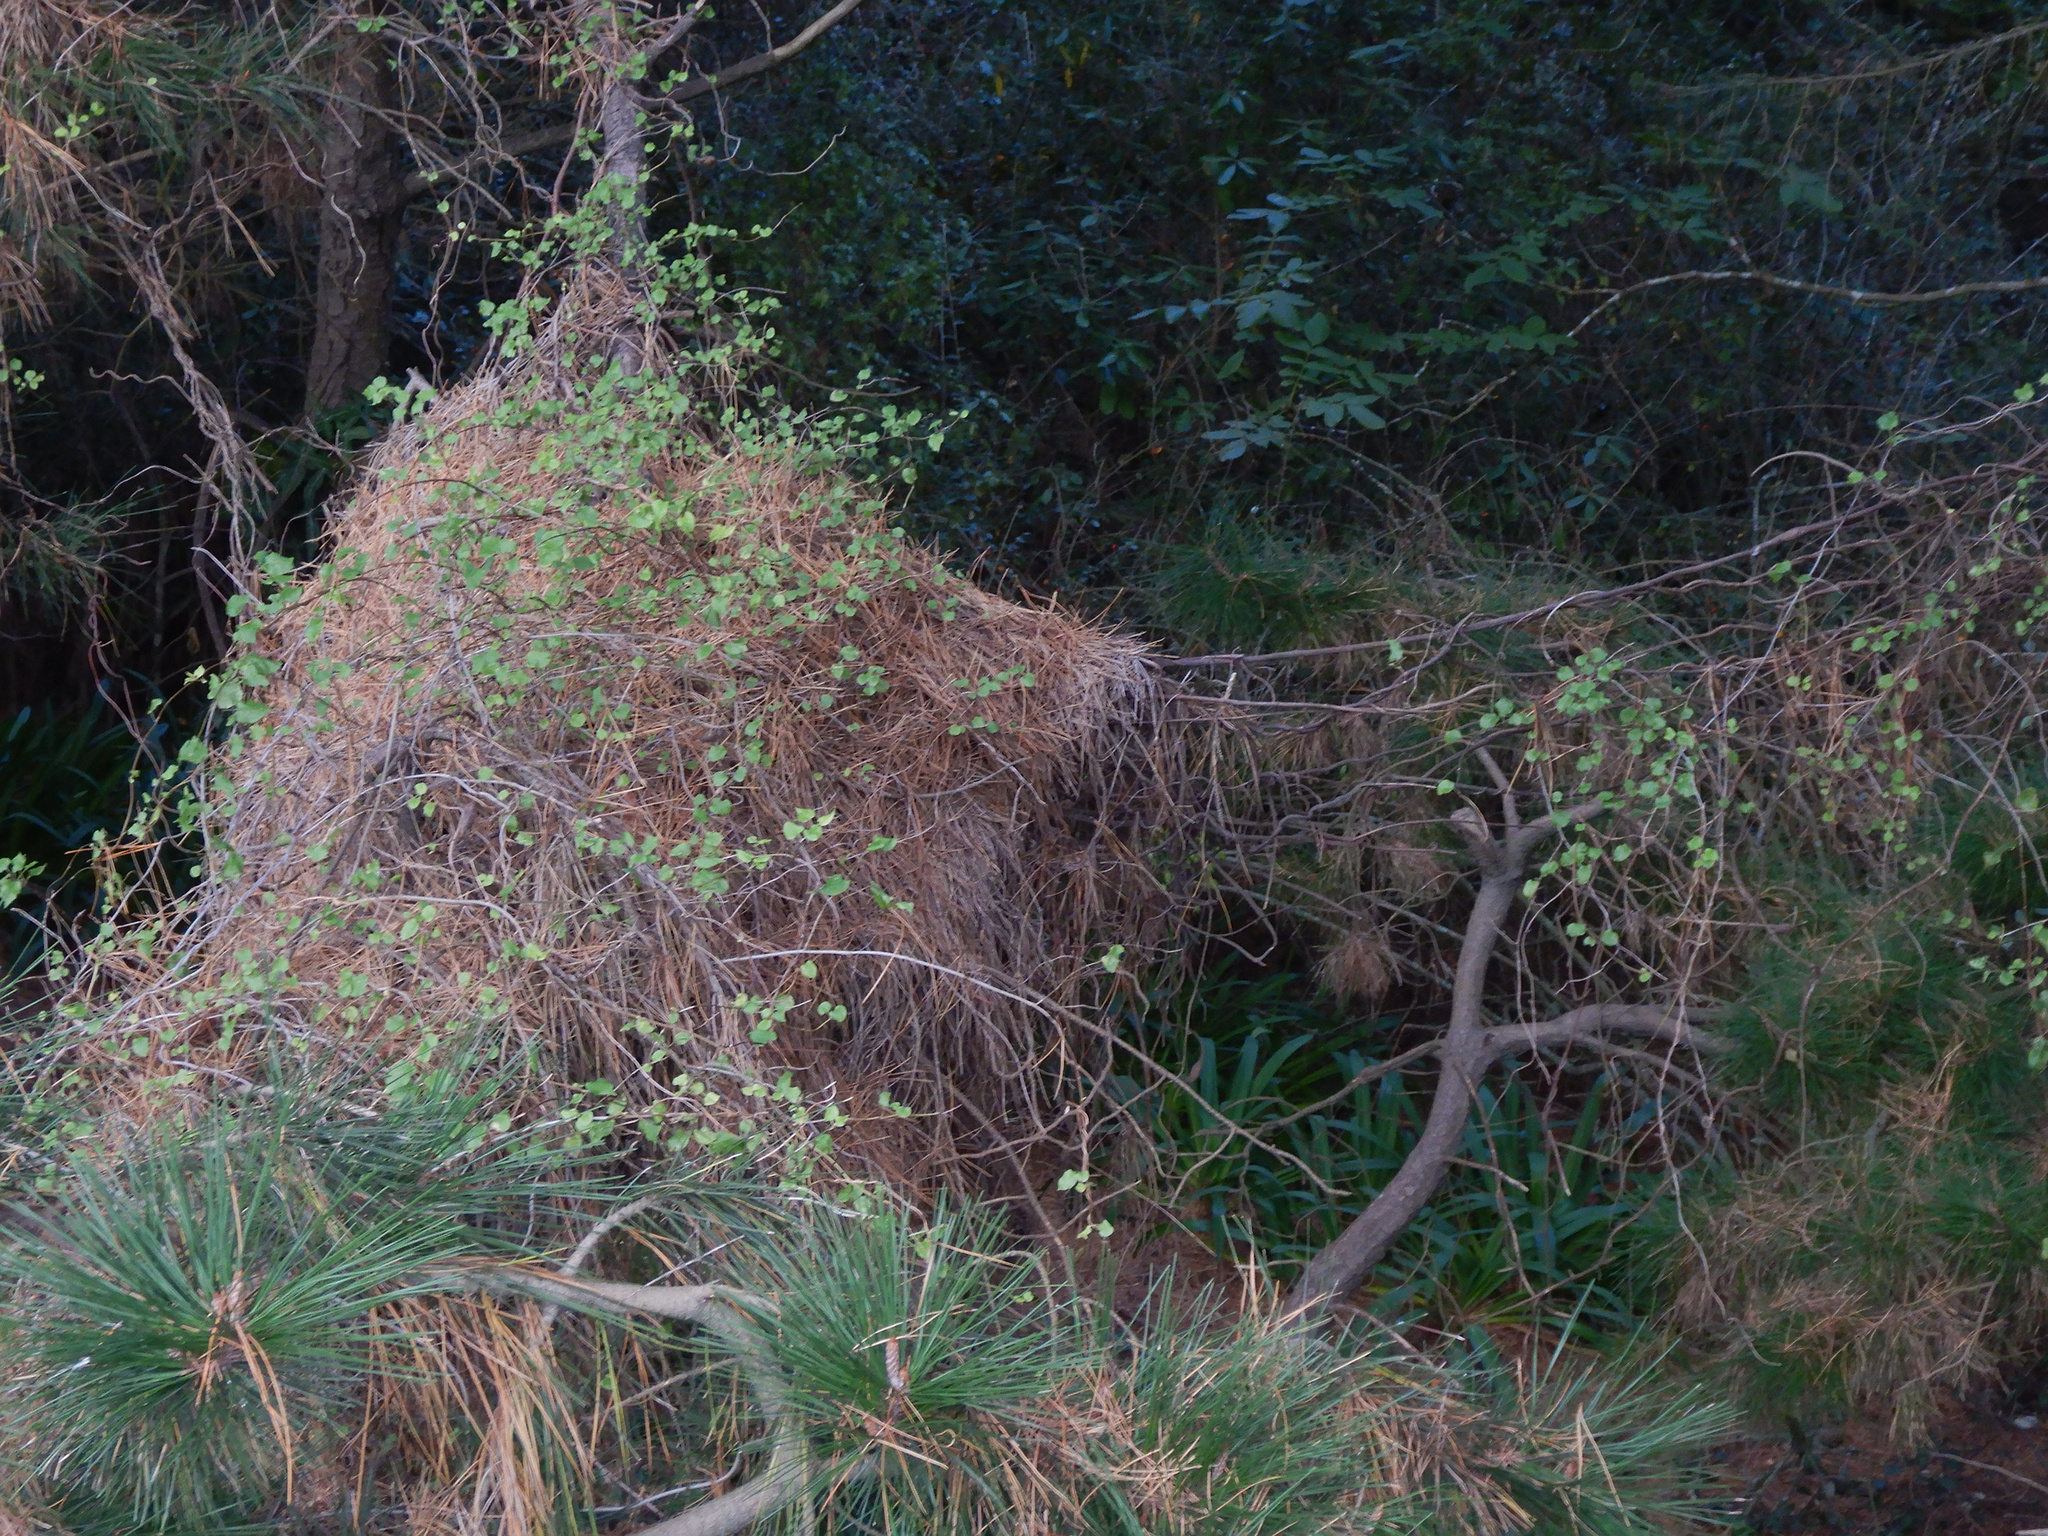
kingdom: Plantae
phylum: Tracheophyta
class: Magnoliopsida
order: Caryophyllales
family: Polygonaceae
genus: Muehlenbeckia
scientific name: Muehlenbeckia australis
